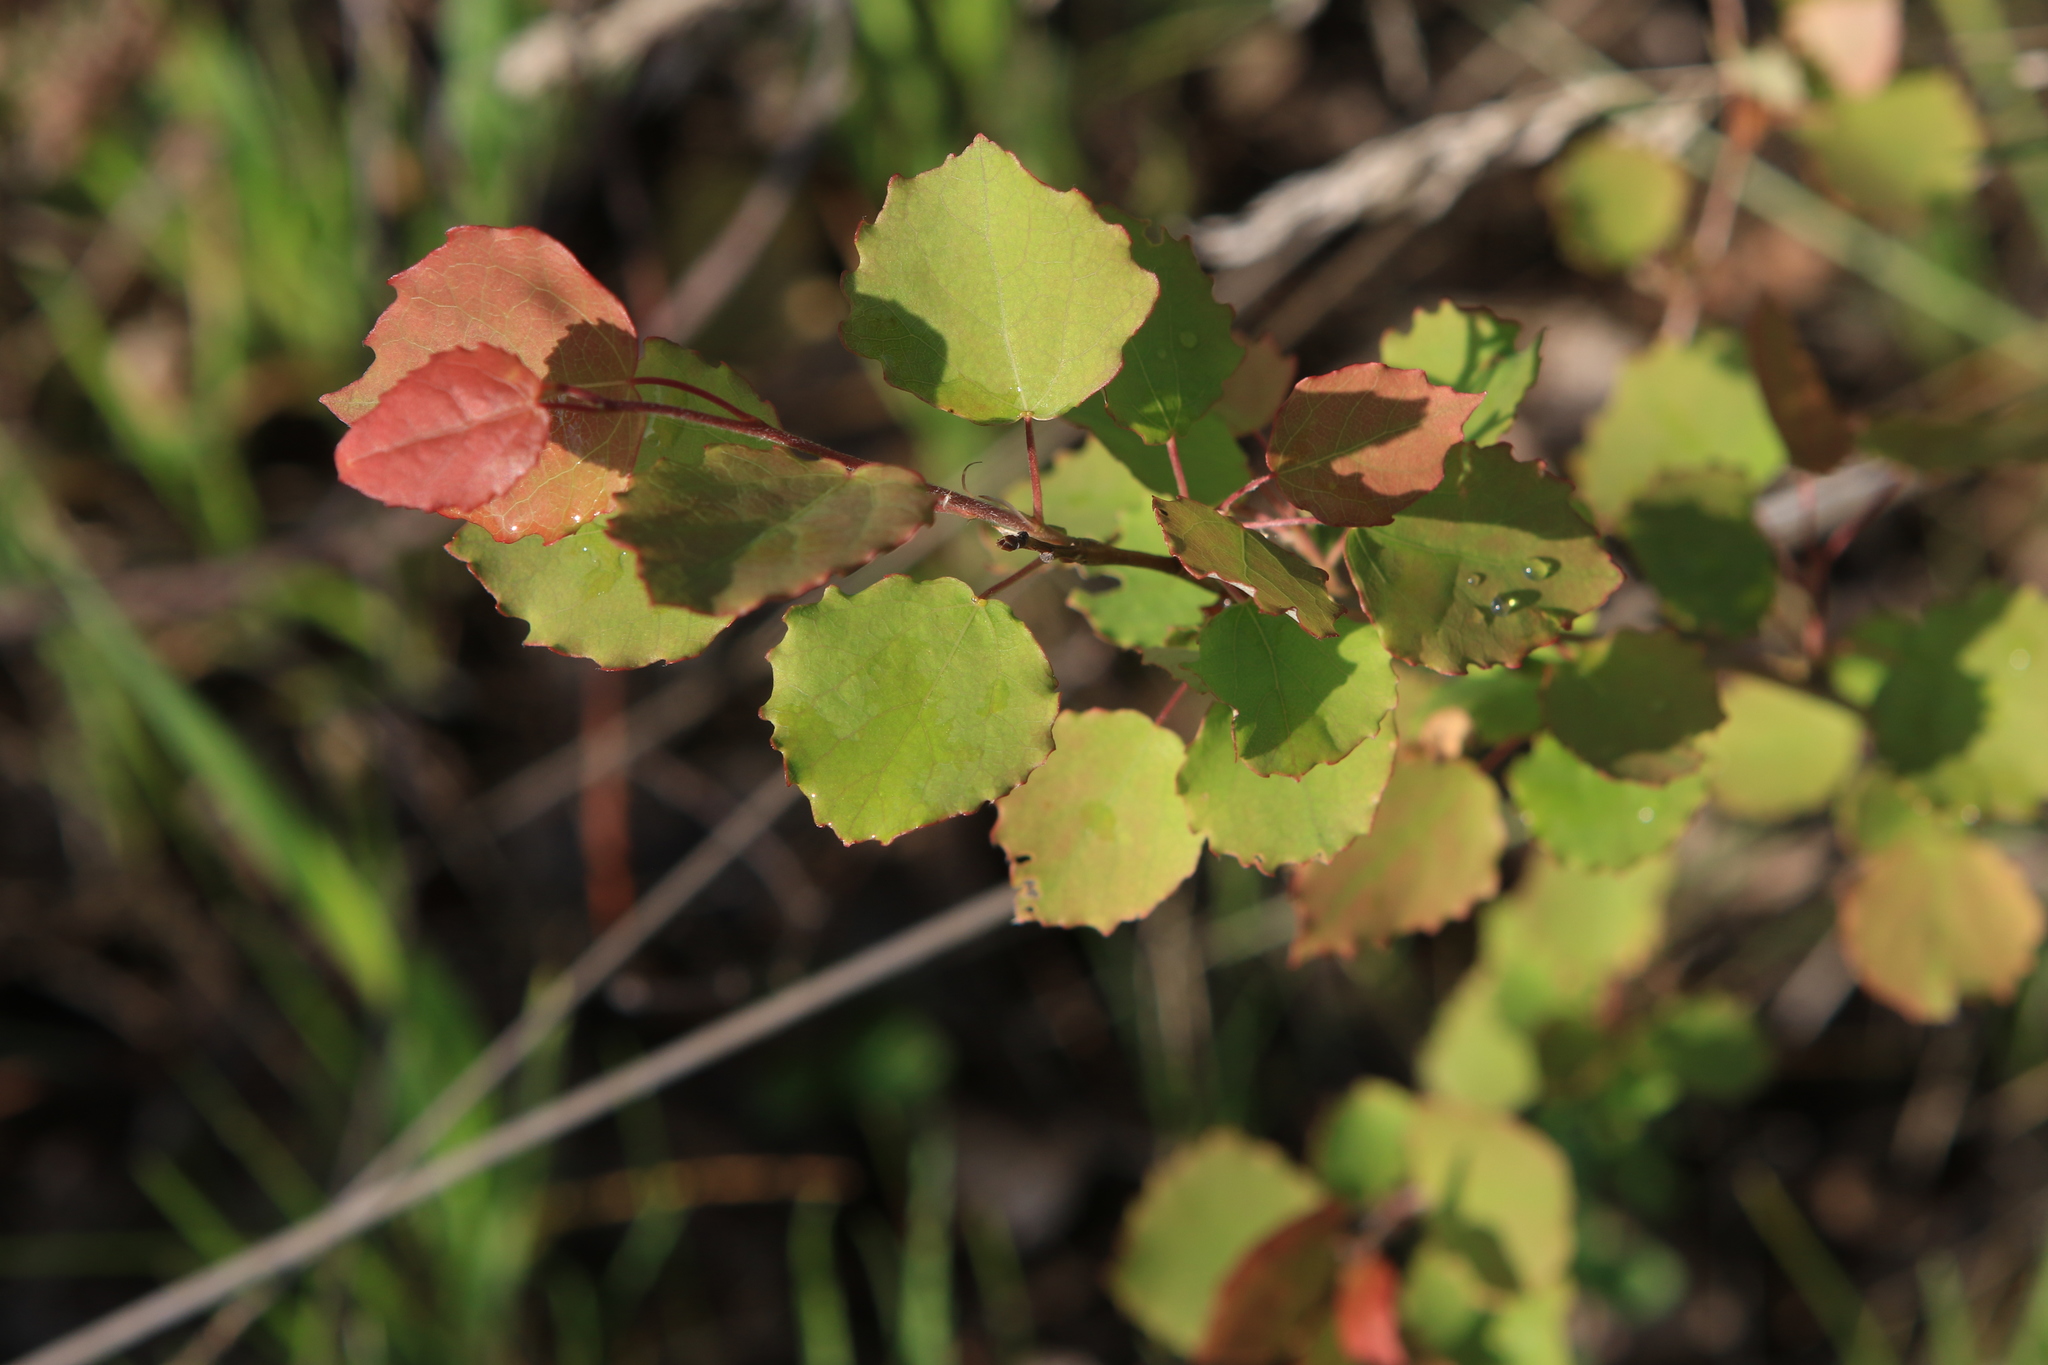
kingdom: Plantae
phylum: Tracheophyta
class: Magnoliopsida
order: Malpighiales
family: Salicaceae
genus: Populus
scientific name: Populus tremula
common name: European aspen
